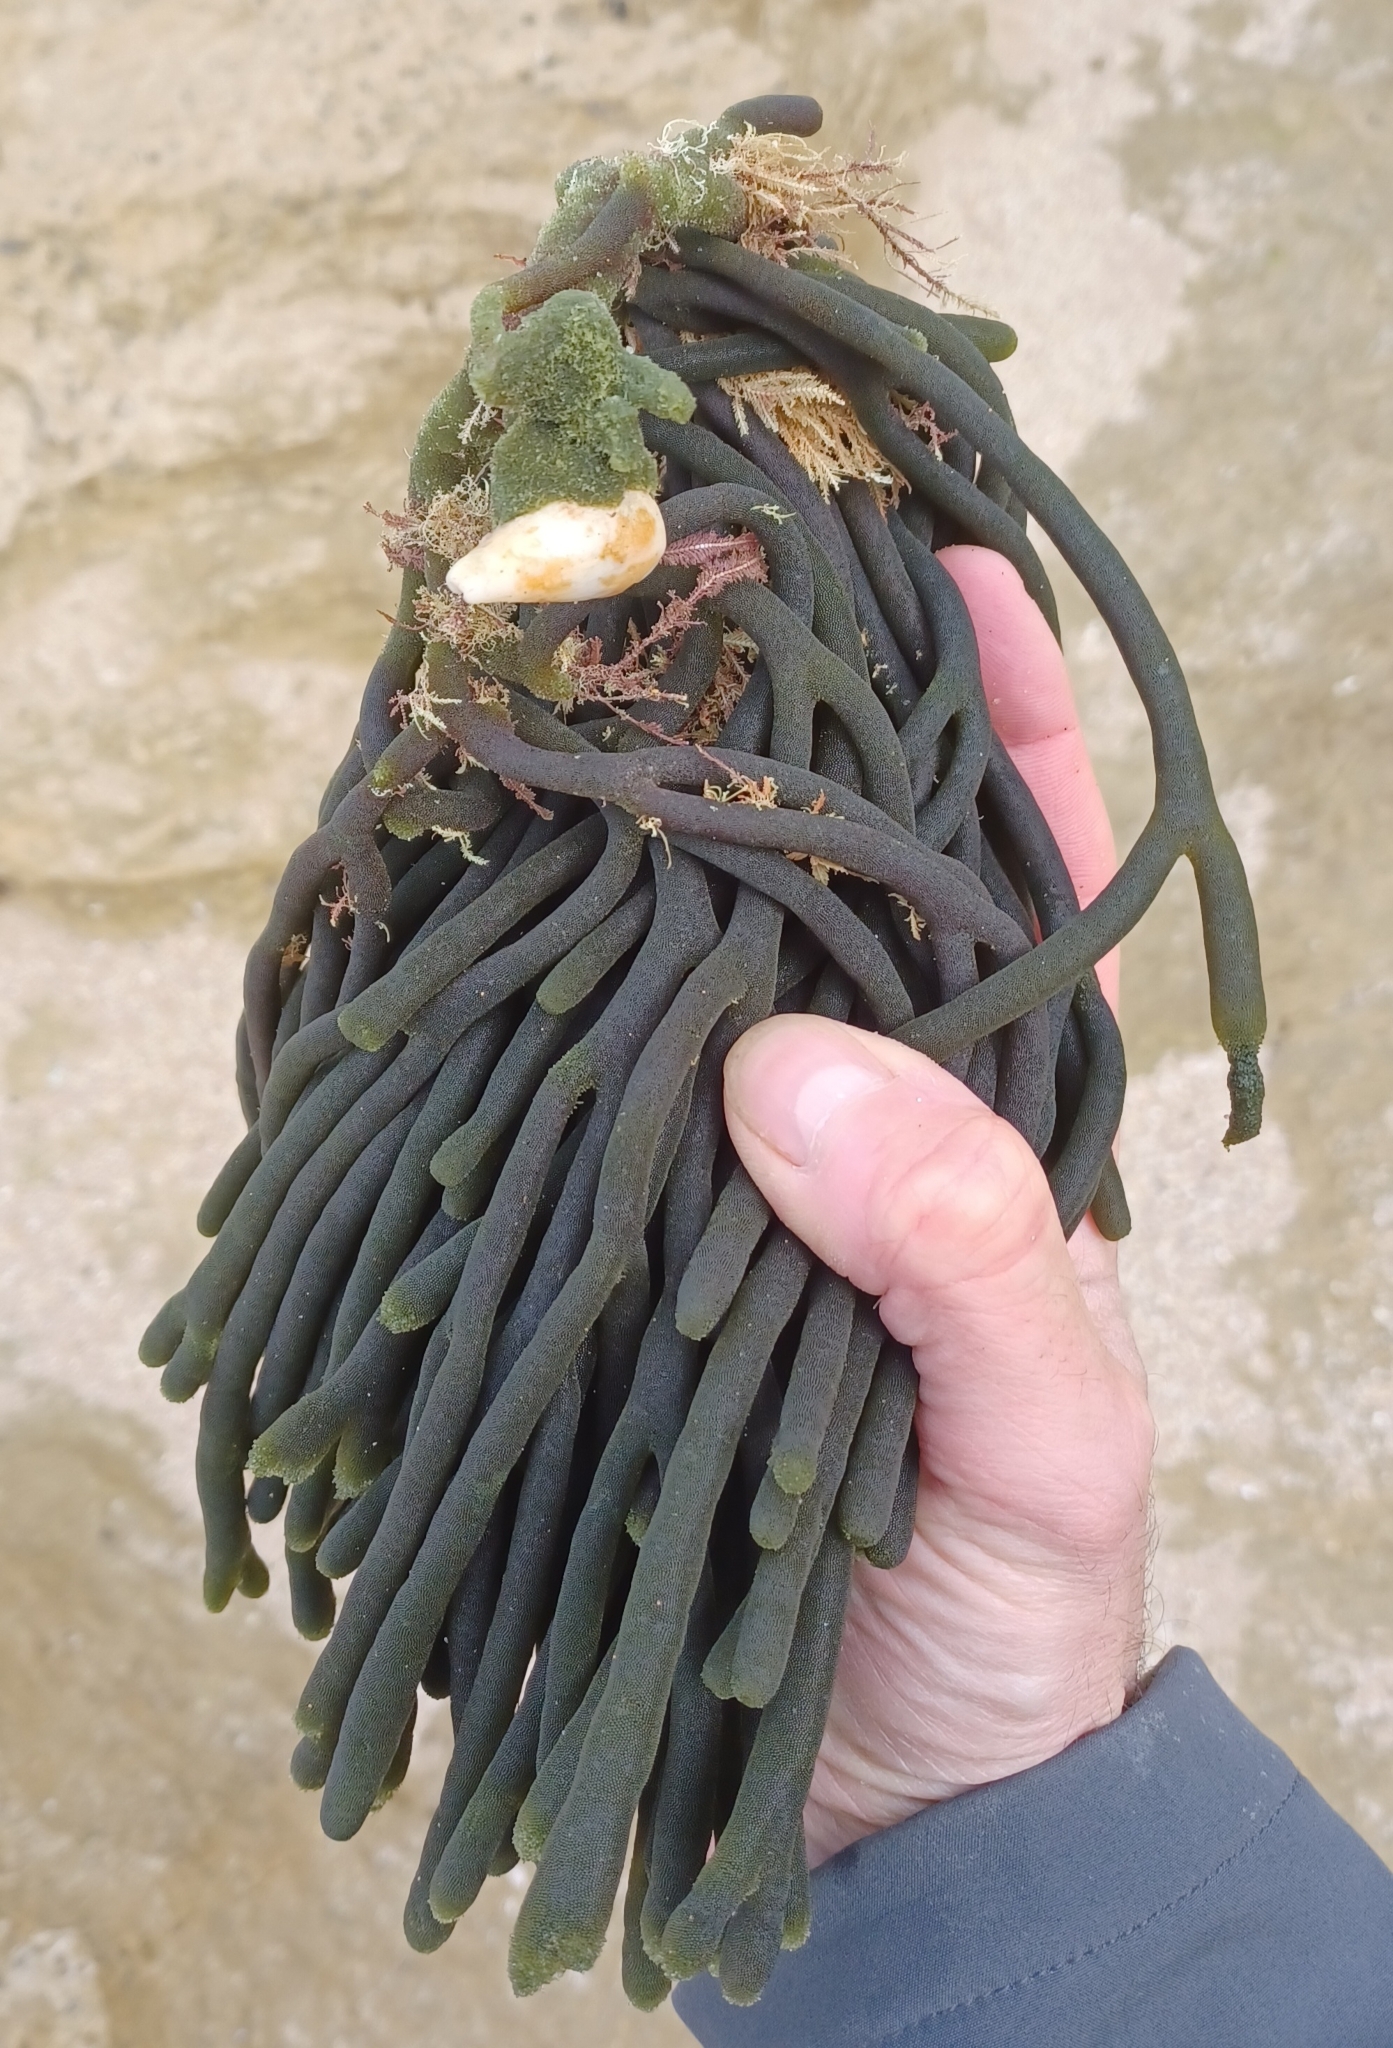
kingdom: Plantae
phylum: Chlorophyta
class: Ulvophyceae
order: Bryopsidales
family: Codiaceae
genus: Codium
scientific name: Codium galeatum
